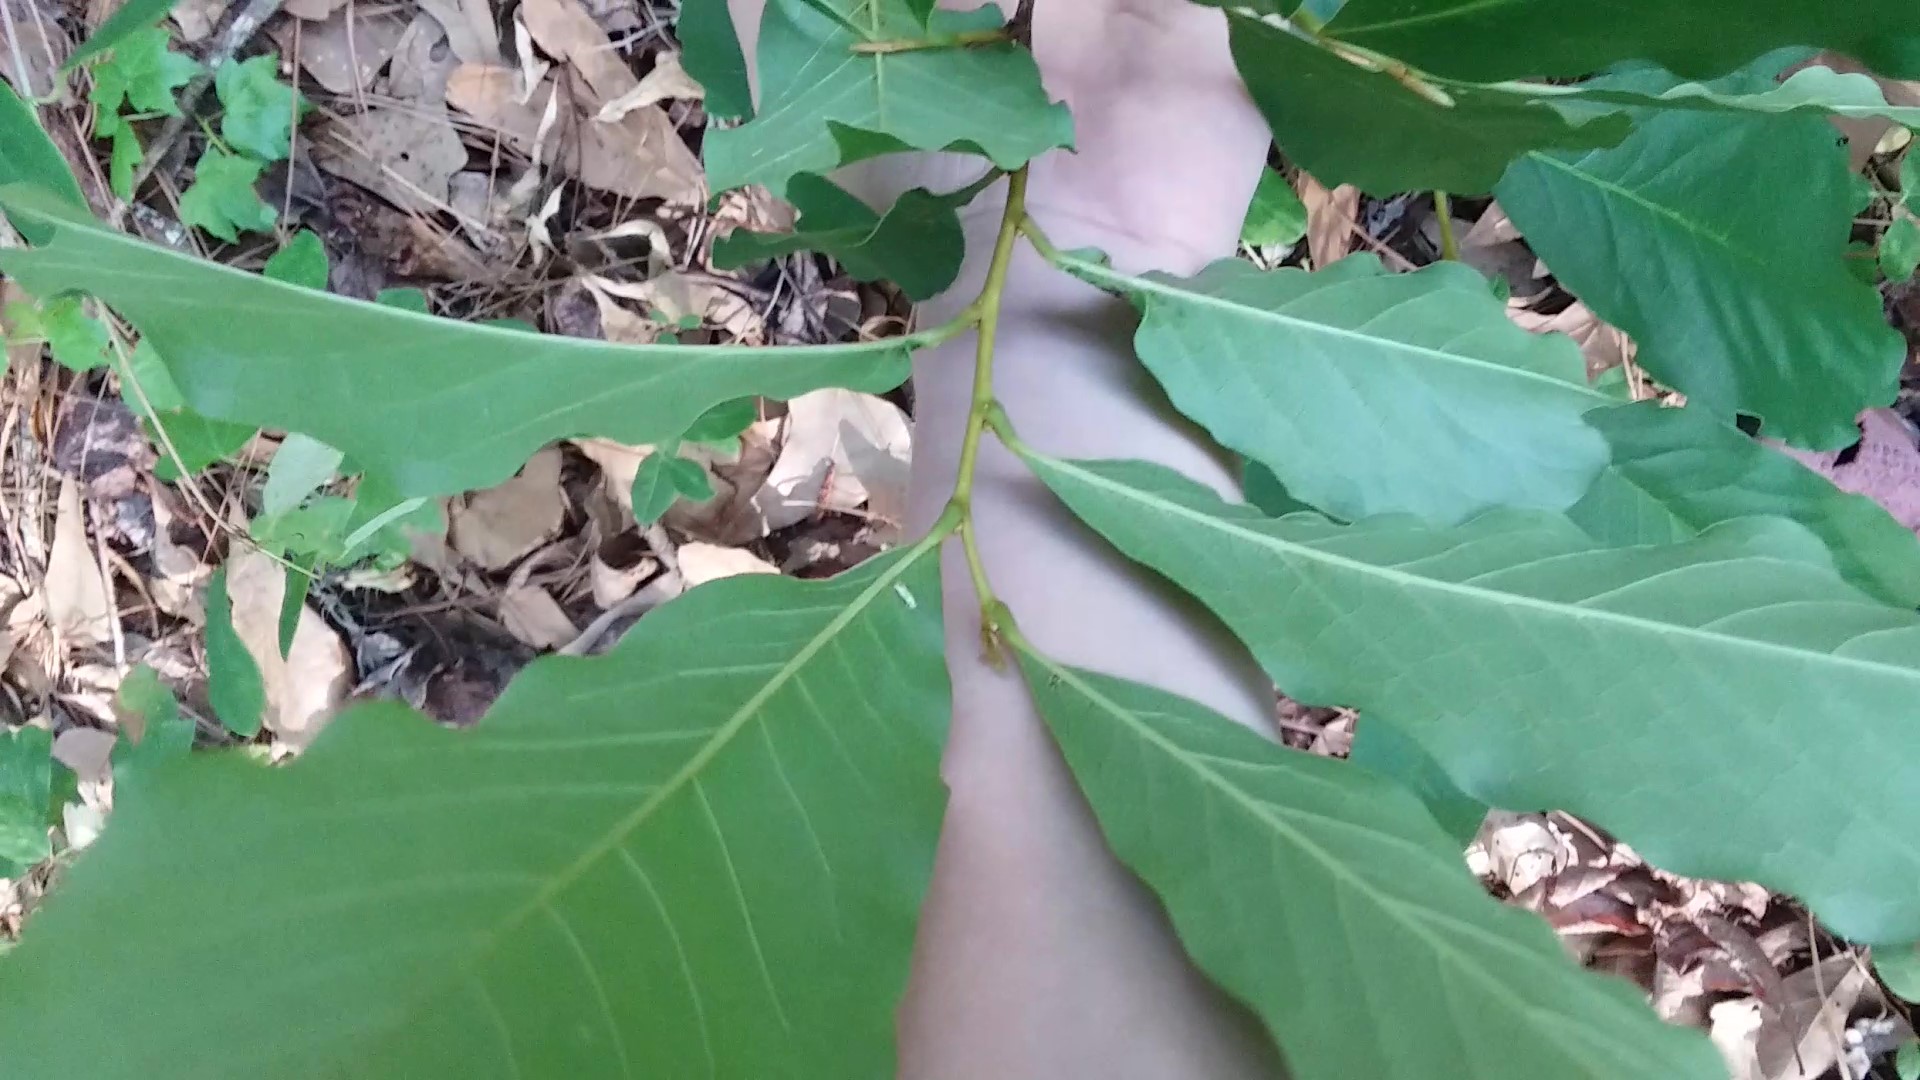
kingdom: Plantae
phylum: Tracheophyta
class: Magnoliopsida
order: Magnoliales
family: Annonaceae
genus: Asimina
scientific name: Asimina parviflora
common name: Dwarf pawpaw
